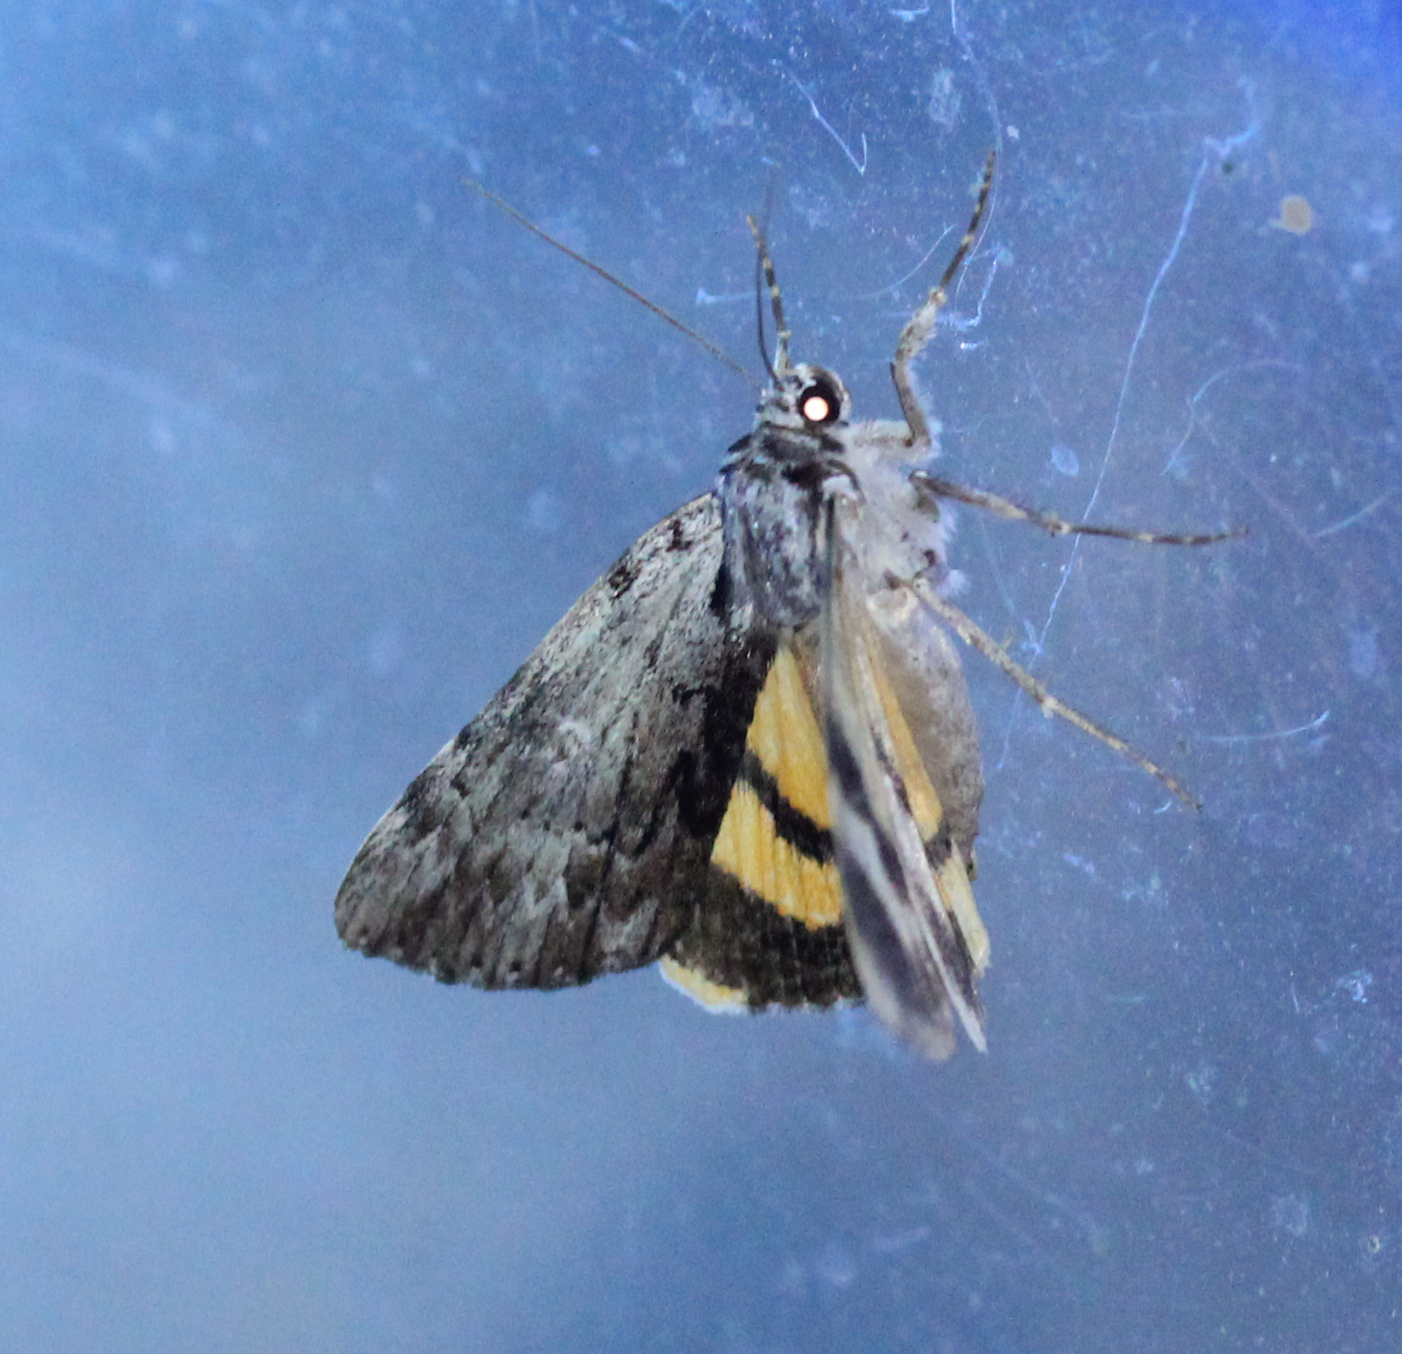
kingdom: Animalia
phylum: Arthropoda
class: Insecta
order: Lepidoptera
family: Erebidae
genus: Catocala
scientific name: Catocala gracilis
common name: Graceful underwing
